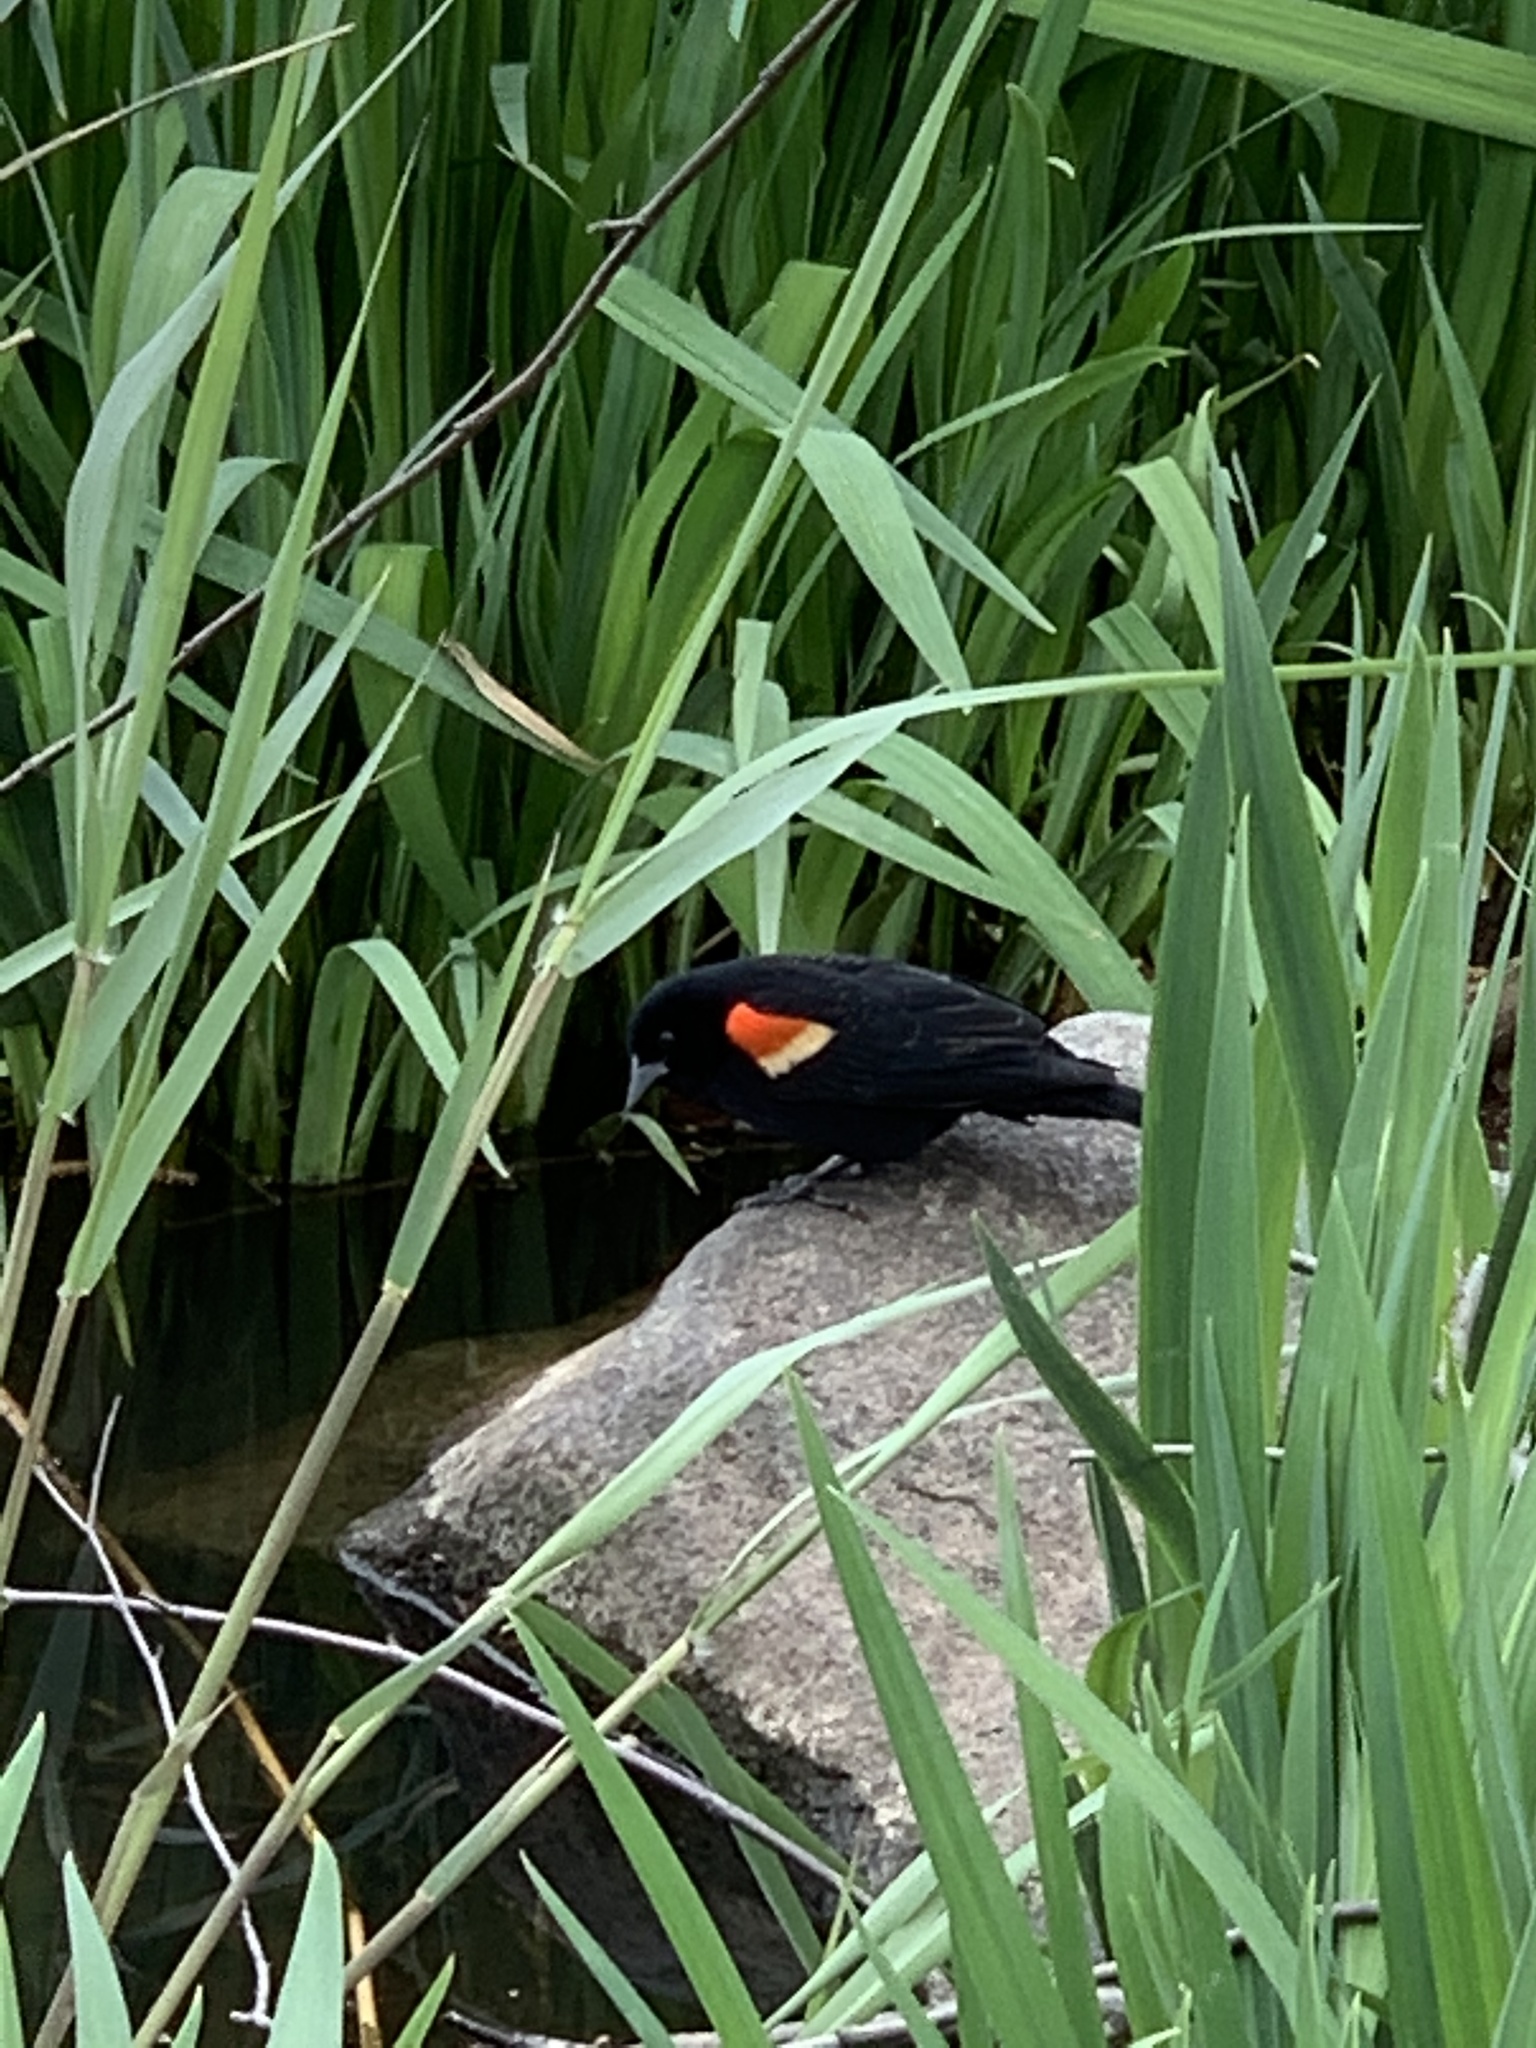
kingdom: Animalia
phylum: Chordata
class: Aves
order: Passeriformes
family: Icteridae
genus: Agelaius
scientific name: Agelaius phoeniceus
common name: Red-winged blackbird
